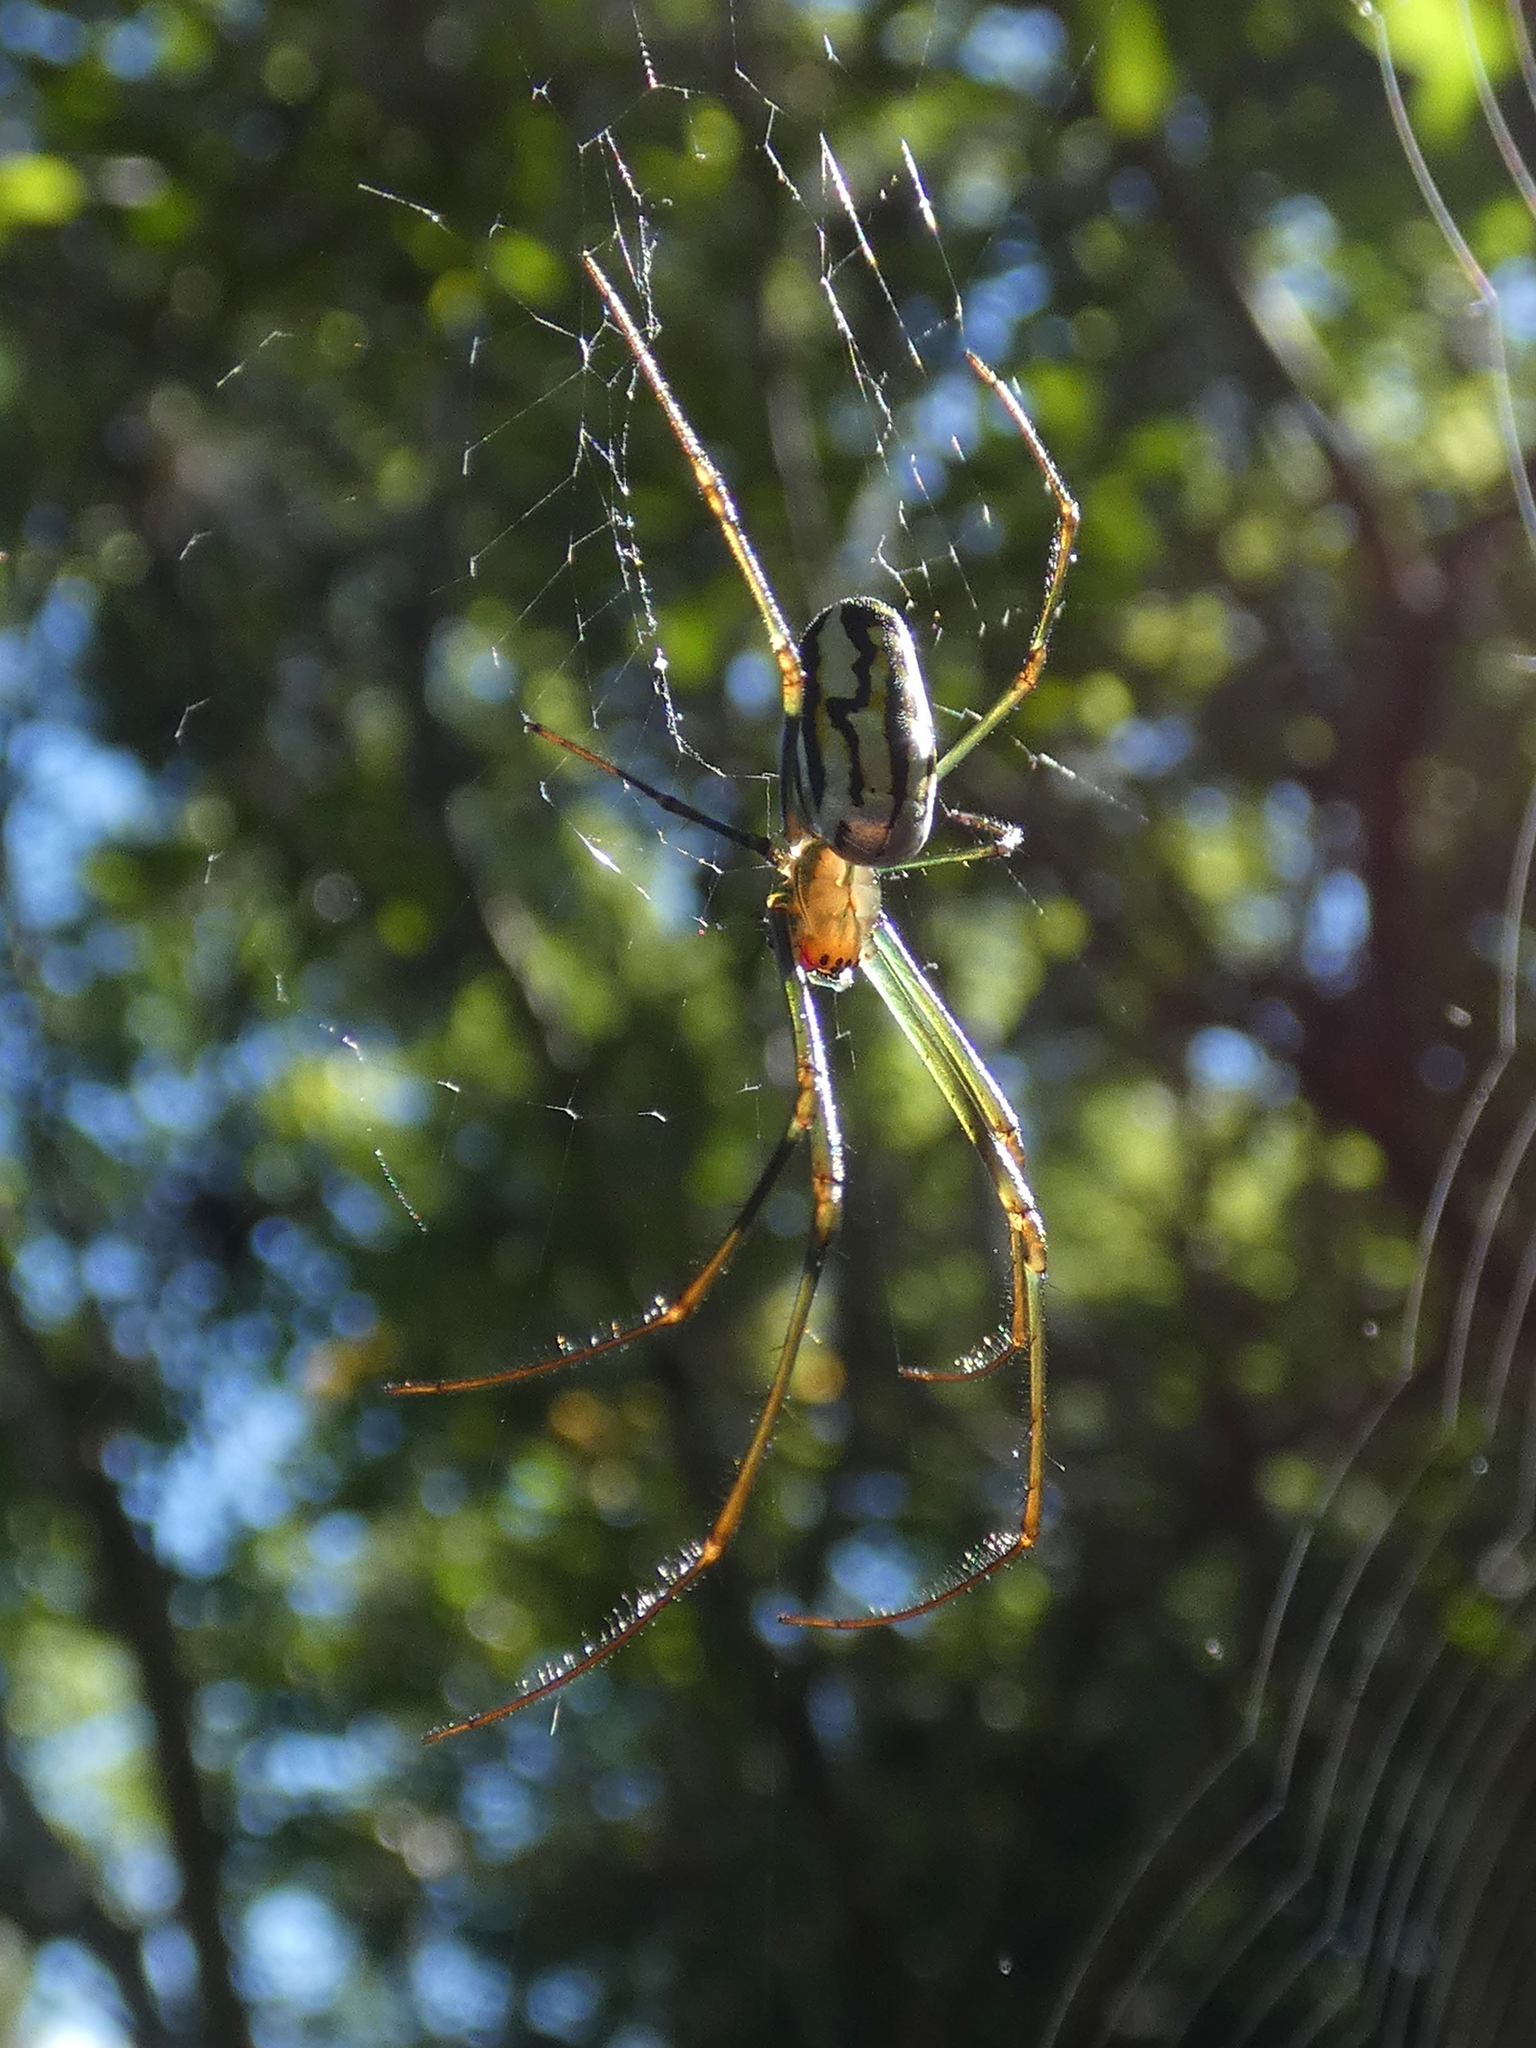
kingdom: Animalia
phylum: Arthropoda
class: Arachnida
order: Araneae
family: Tetragnathidae
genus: Leucauge
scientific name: Leucauge argyra
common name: Longjawed orb weavers
